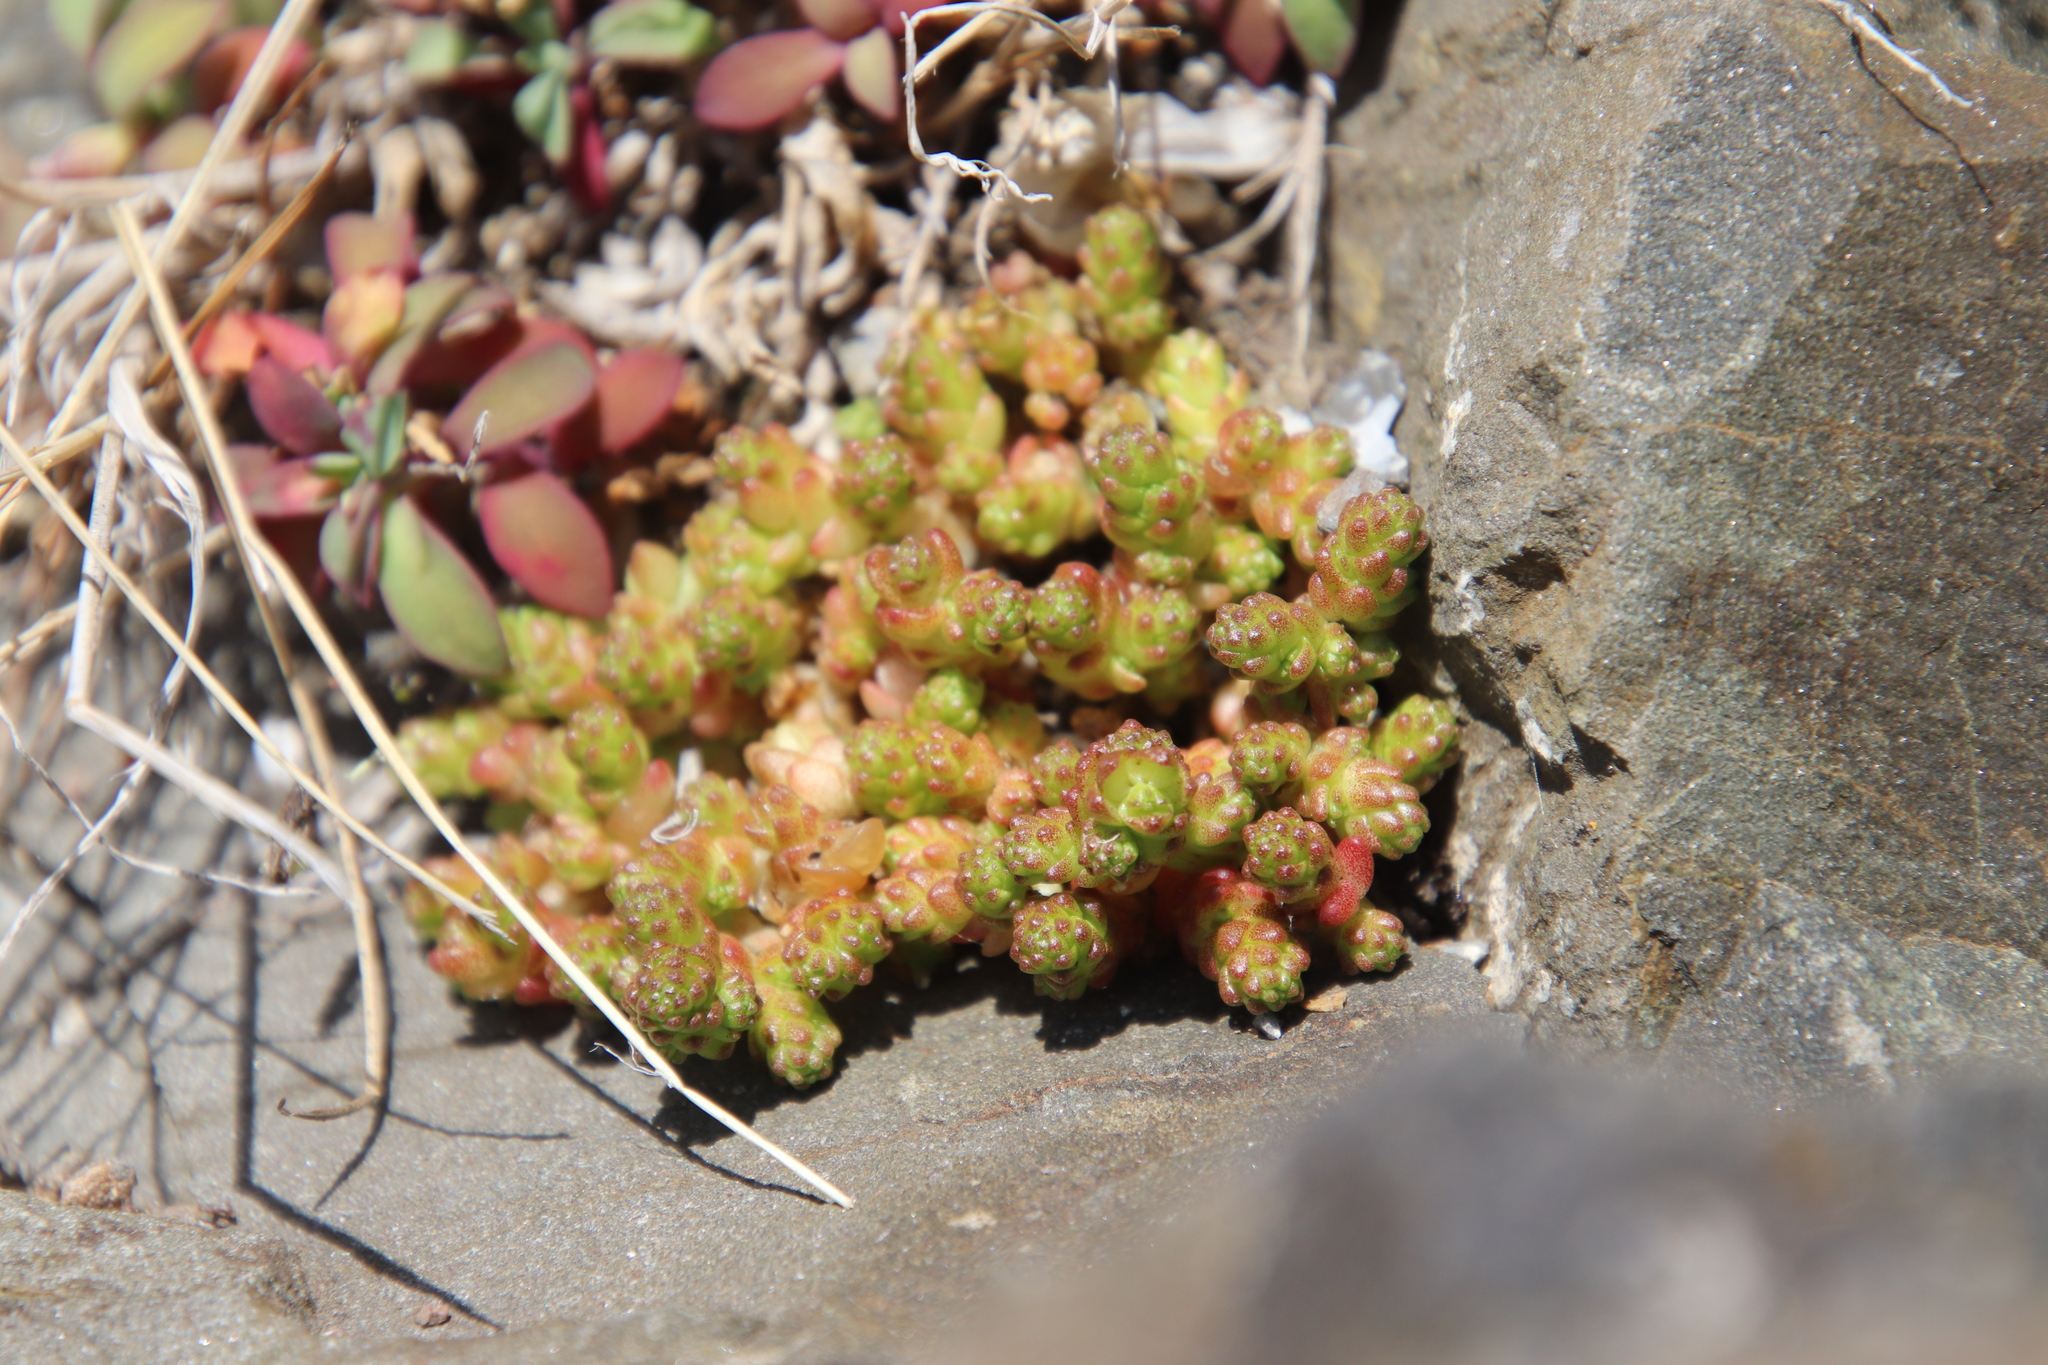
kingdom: Plantae
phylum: Tracheophyta
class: Magnoliopsida
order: Saxifragales
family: Crassulaceae
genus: Sedum
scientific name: Sedum acre
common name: Biting stonecrop
